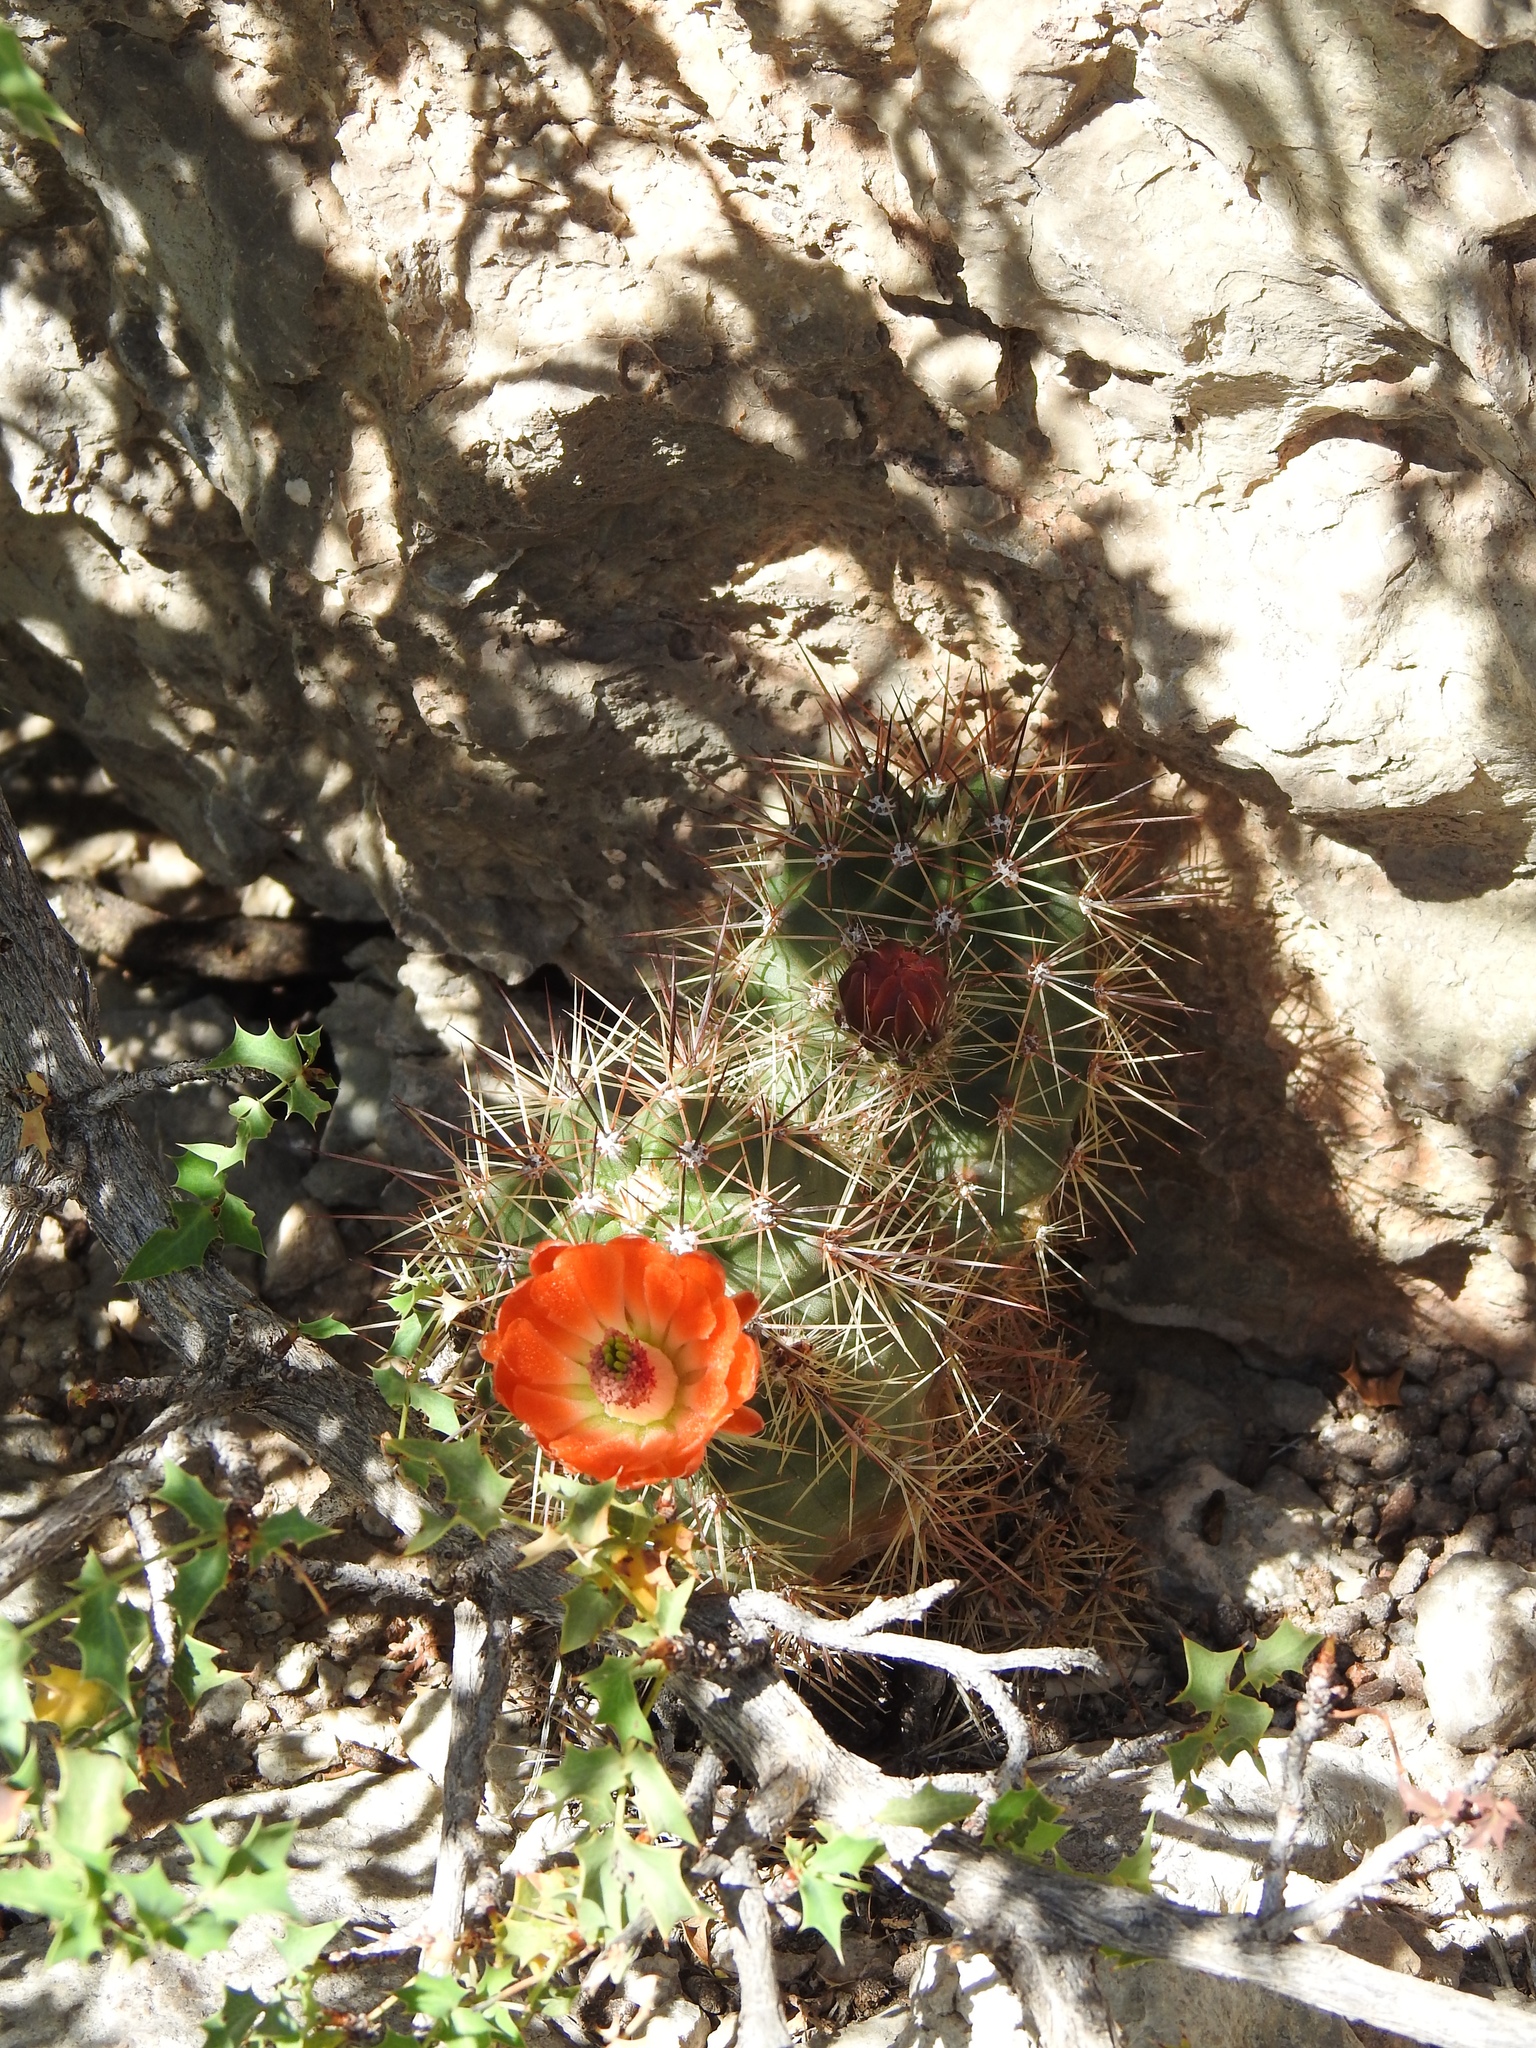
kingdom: Plantae
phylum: Tracheophyta
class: Magnoliopsida
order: Caryophyllales
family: Cactaceae
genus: Echinocereus
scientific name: Echinocereus coccineus
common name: Scarlet hedgehog cactus
